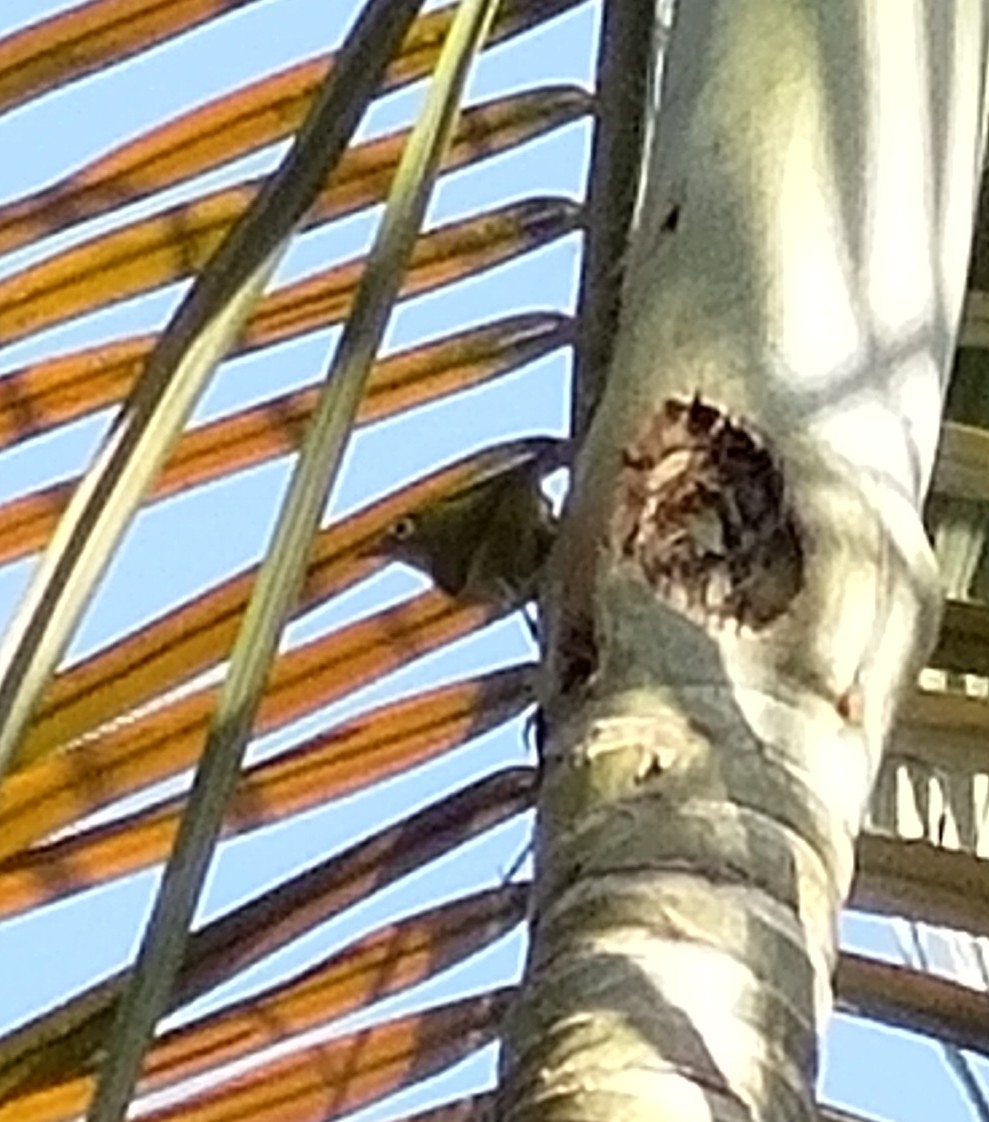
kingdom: Animalia
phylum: Chordata
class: Aves
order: Passeriformes
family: Zosteropidae
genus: Zosterops
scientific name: Zosterops simplex
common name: Swinhoe's white-eye
